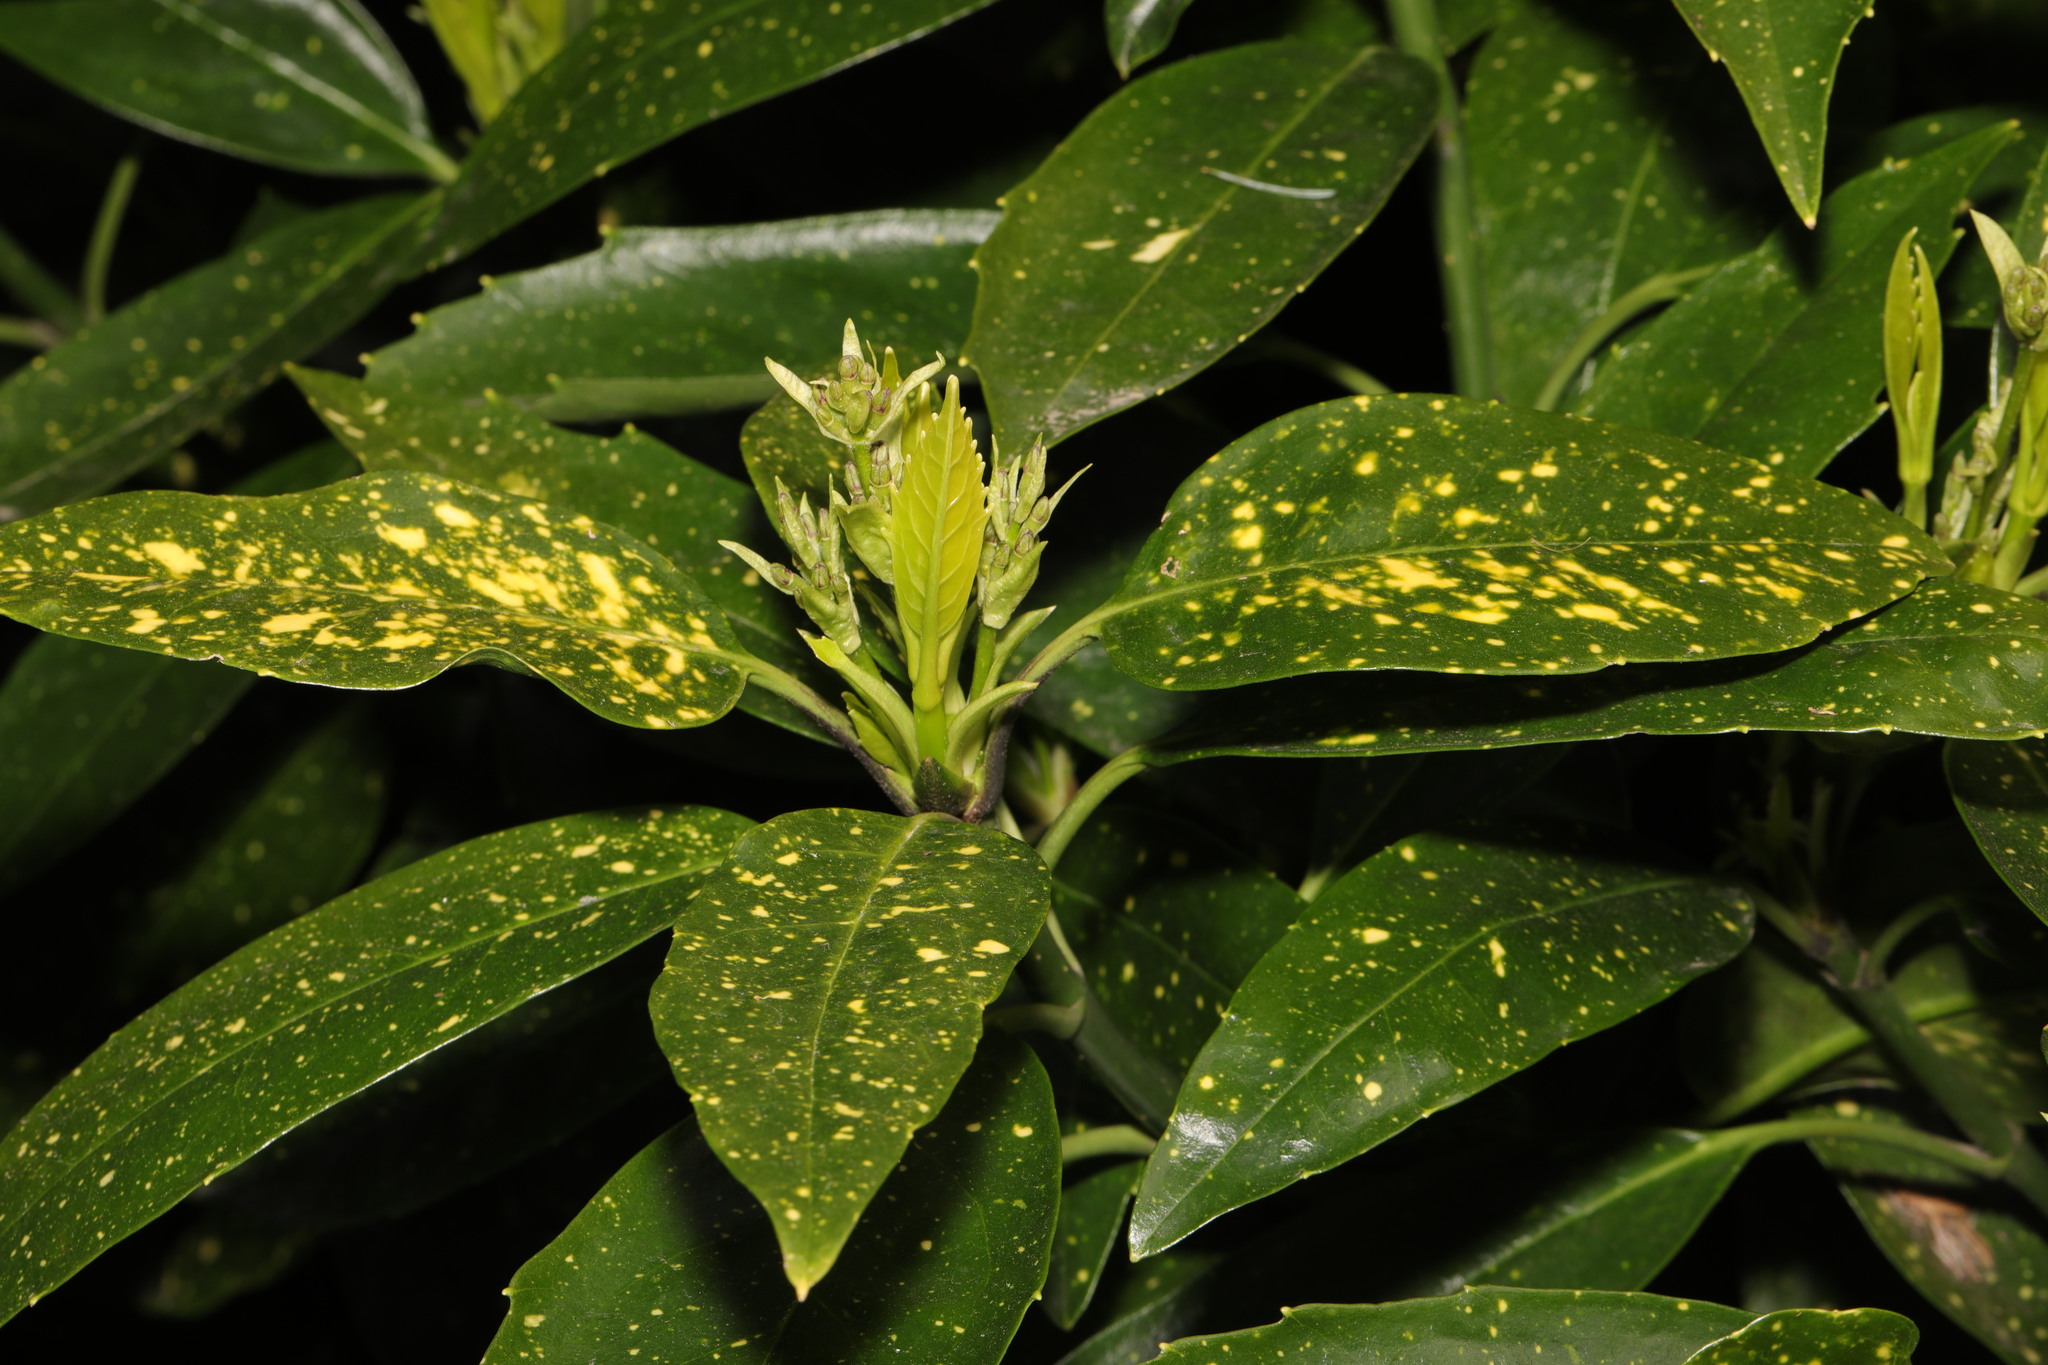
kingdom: Plantae
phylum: Tracheophyta
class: Magnoliopsida
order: Garryales
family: Garryaceae
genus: Aucuba
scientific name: Aucuba japonica
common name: Spotted-laurel
